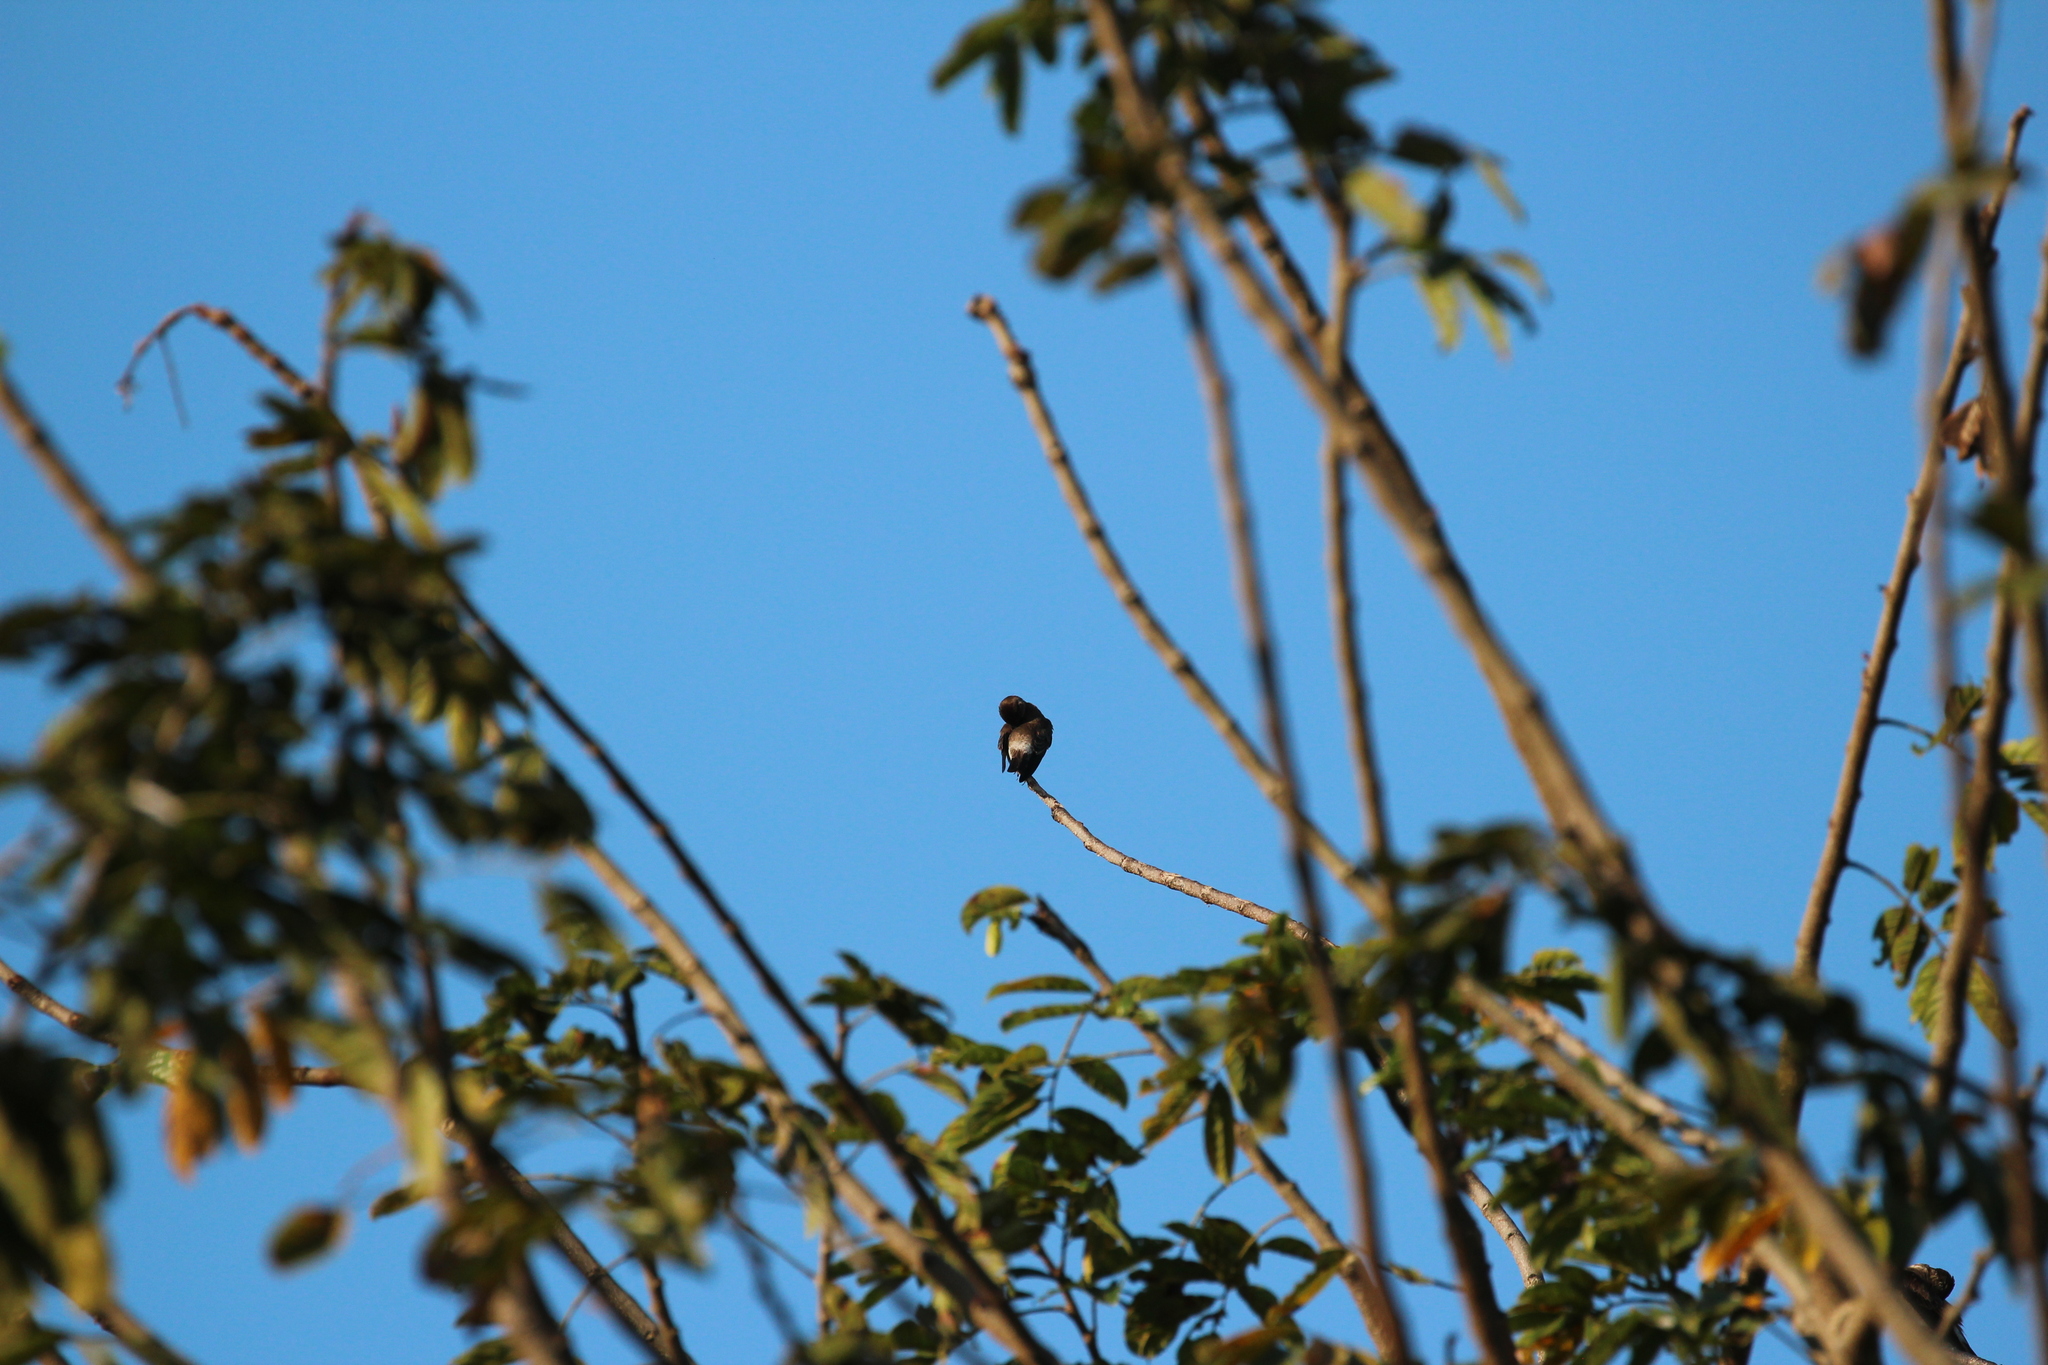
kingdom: Animalia
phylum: Chordata
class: Aves
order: Passeriformes
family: Hirundinidae
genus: Stelgidopteryx
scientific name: Stelgidopteryx ruficollis
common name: Southern rough-winged swallow
